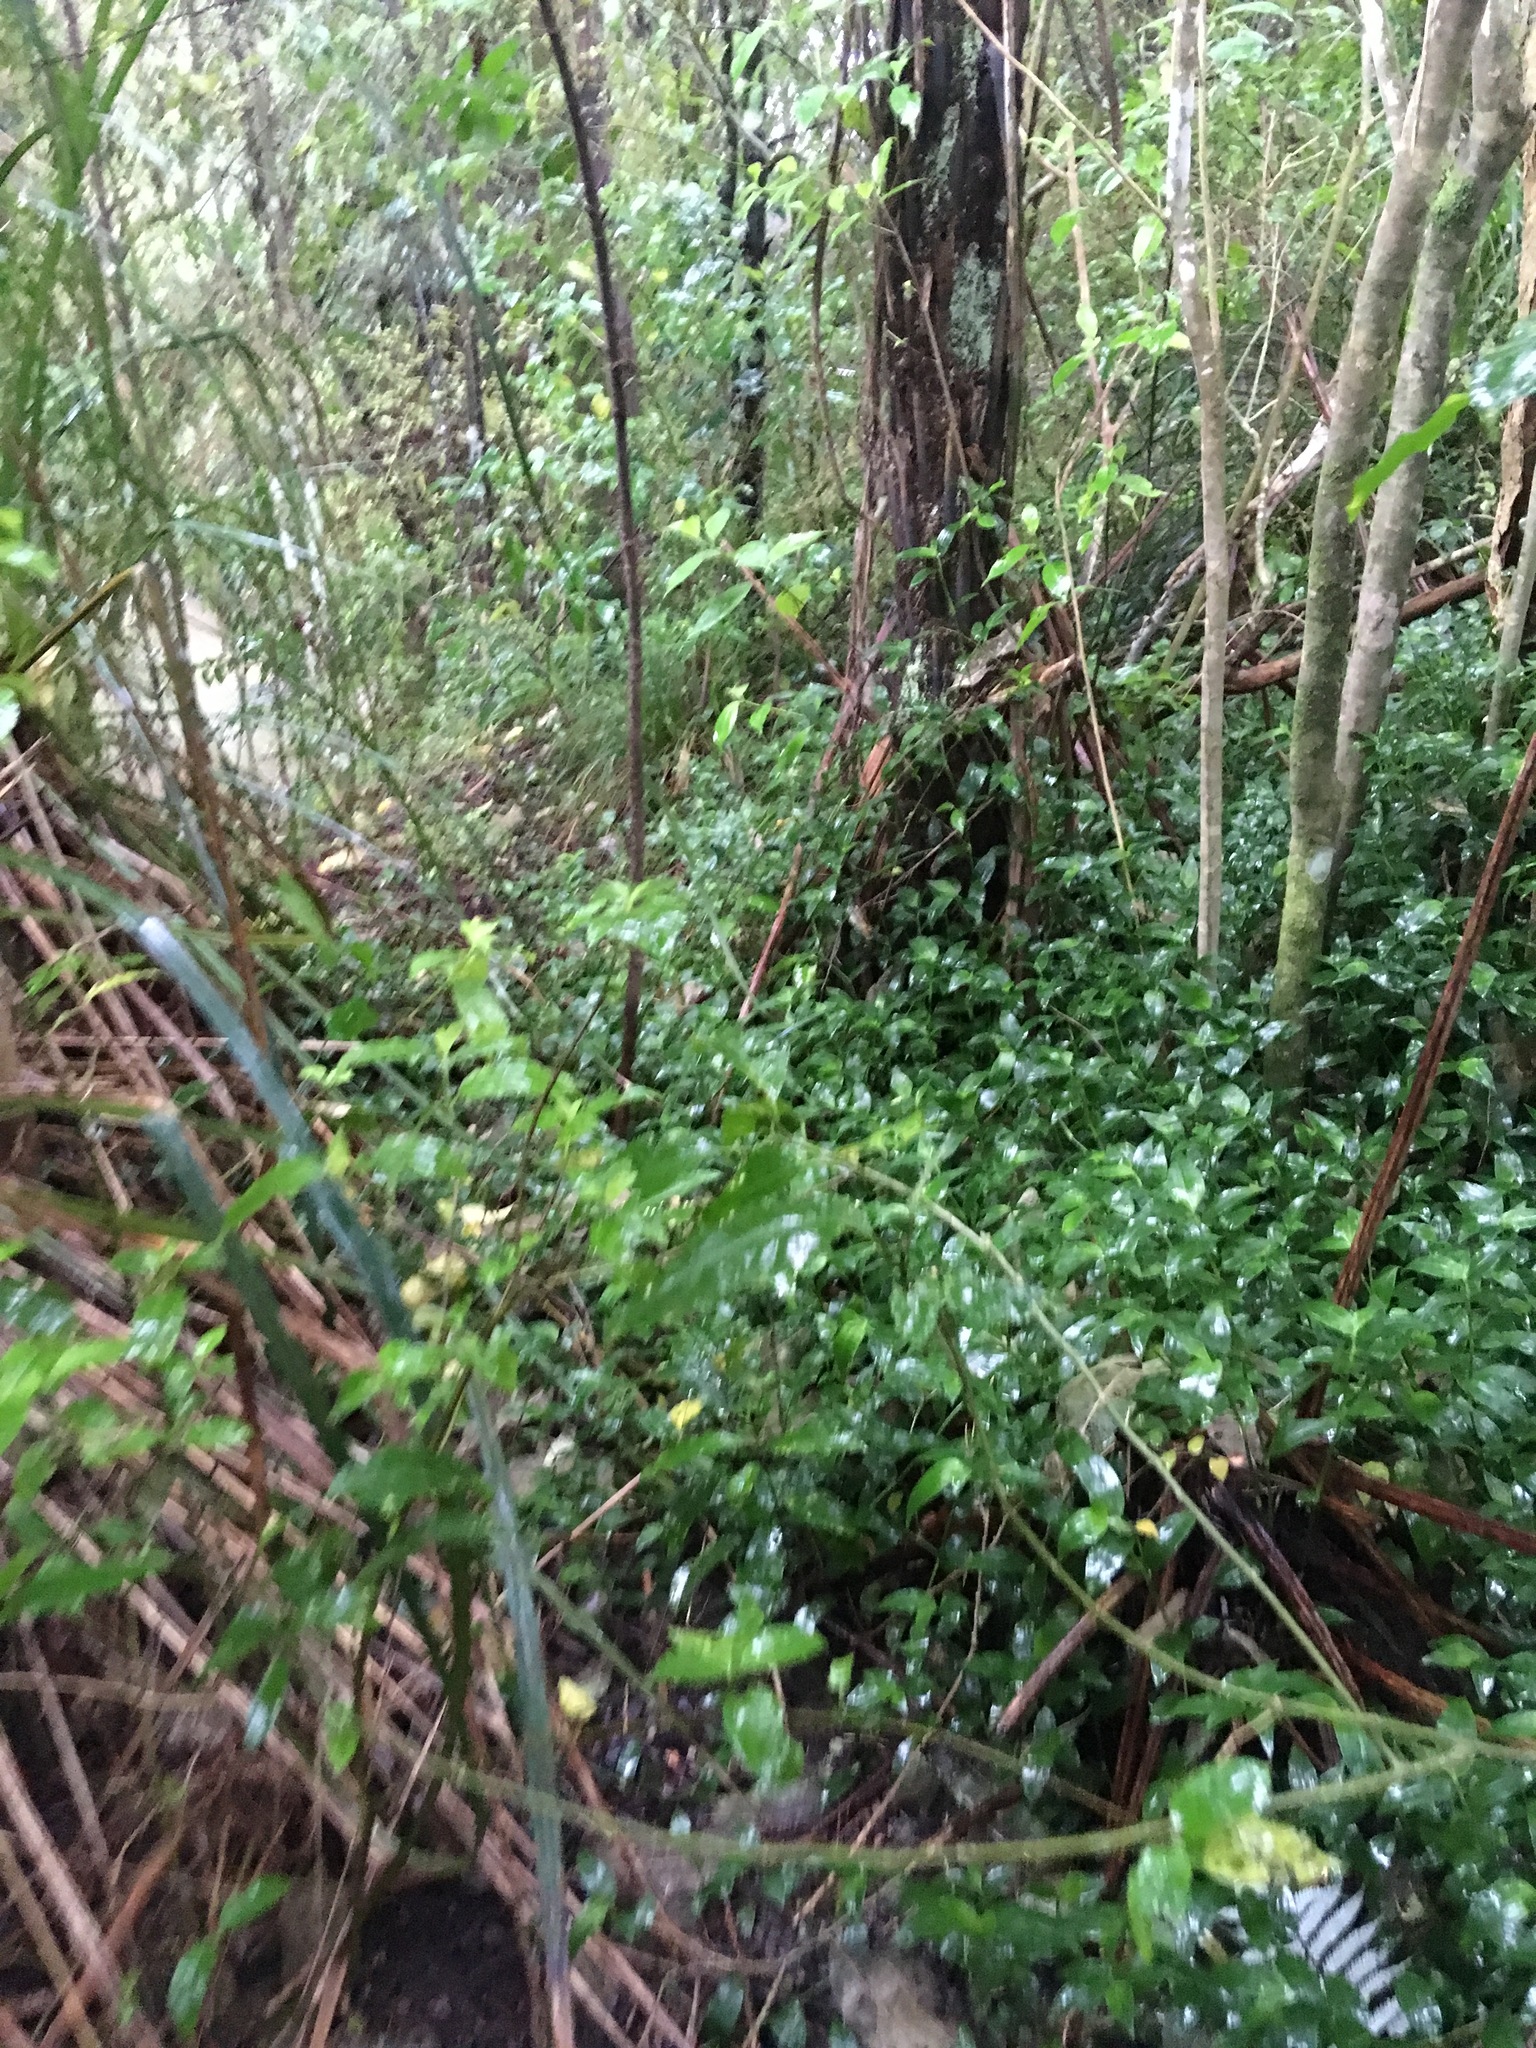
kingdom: Plantae
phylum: Tracheophyta
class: Liliopsida
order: Commelinales
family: Commelinaceae
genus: Tradescantia
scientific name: Tradescantia fluminensis
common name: Wandering-jew
